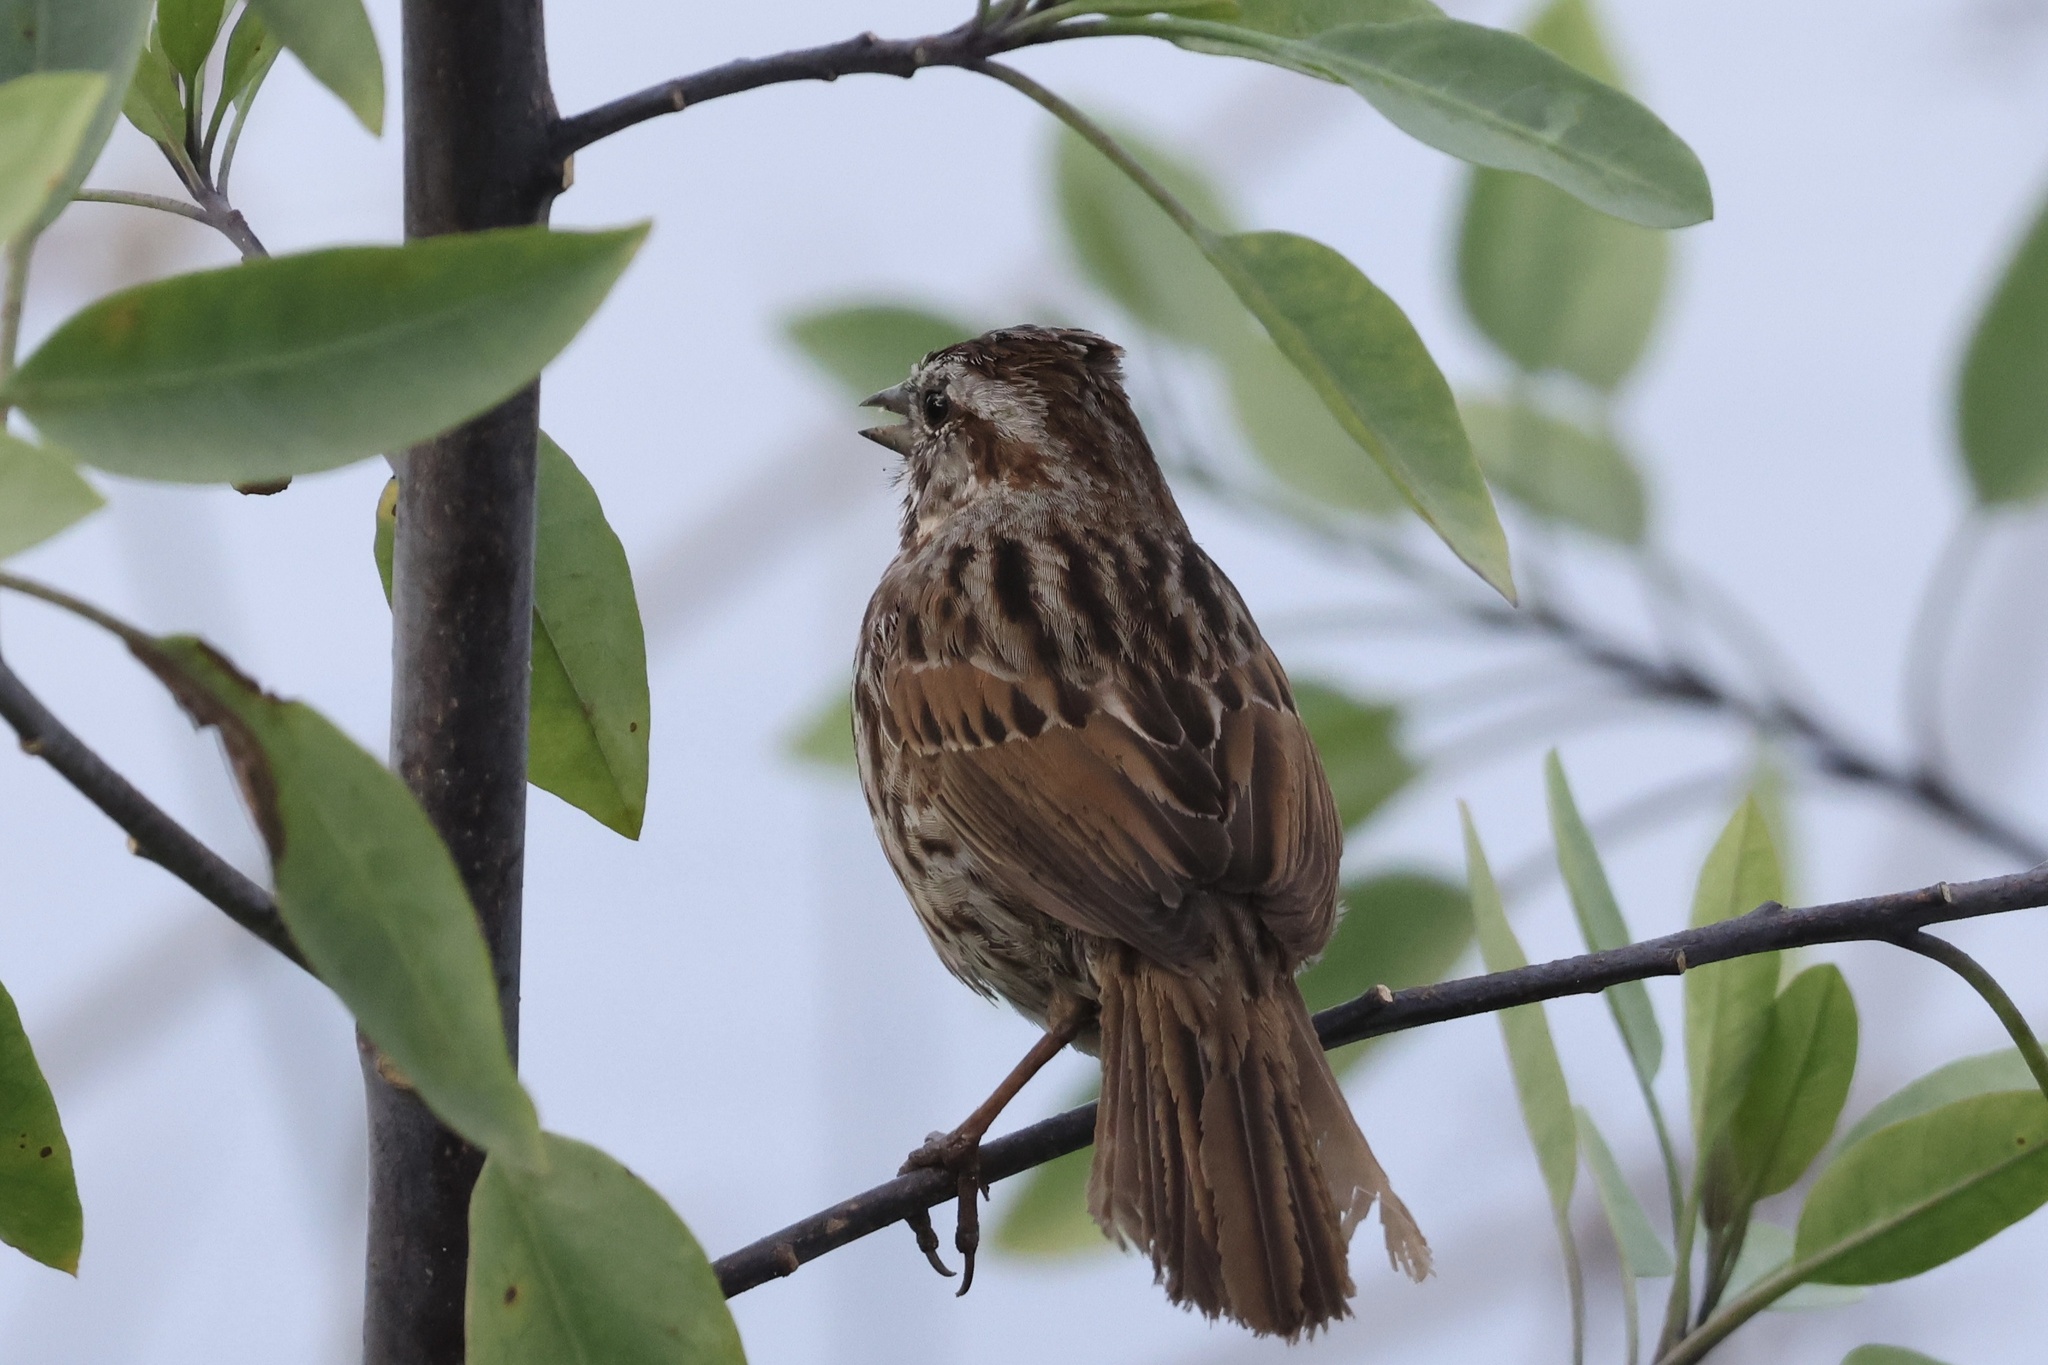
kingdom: Animalia
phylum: Chordata
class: Aves
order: Passeriformes
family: Passerellidae
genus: Melospiza
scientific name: Melospiza melodia
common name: Song sparrow
